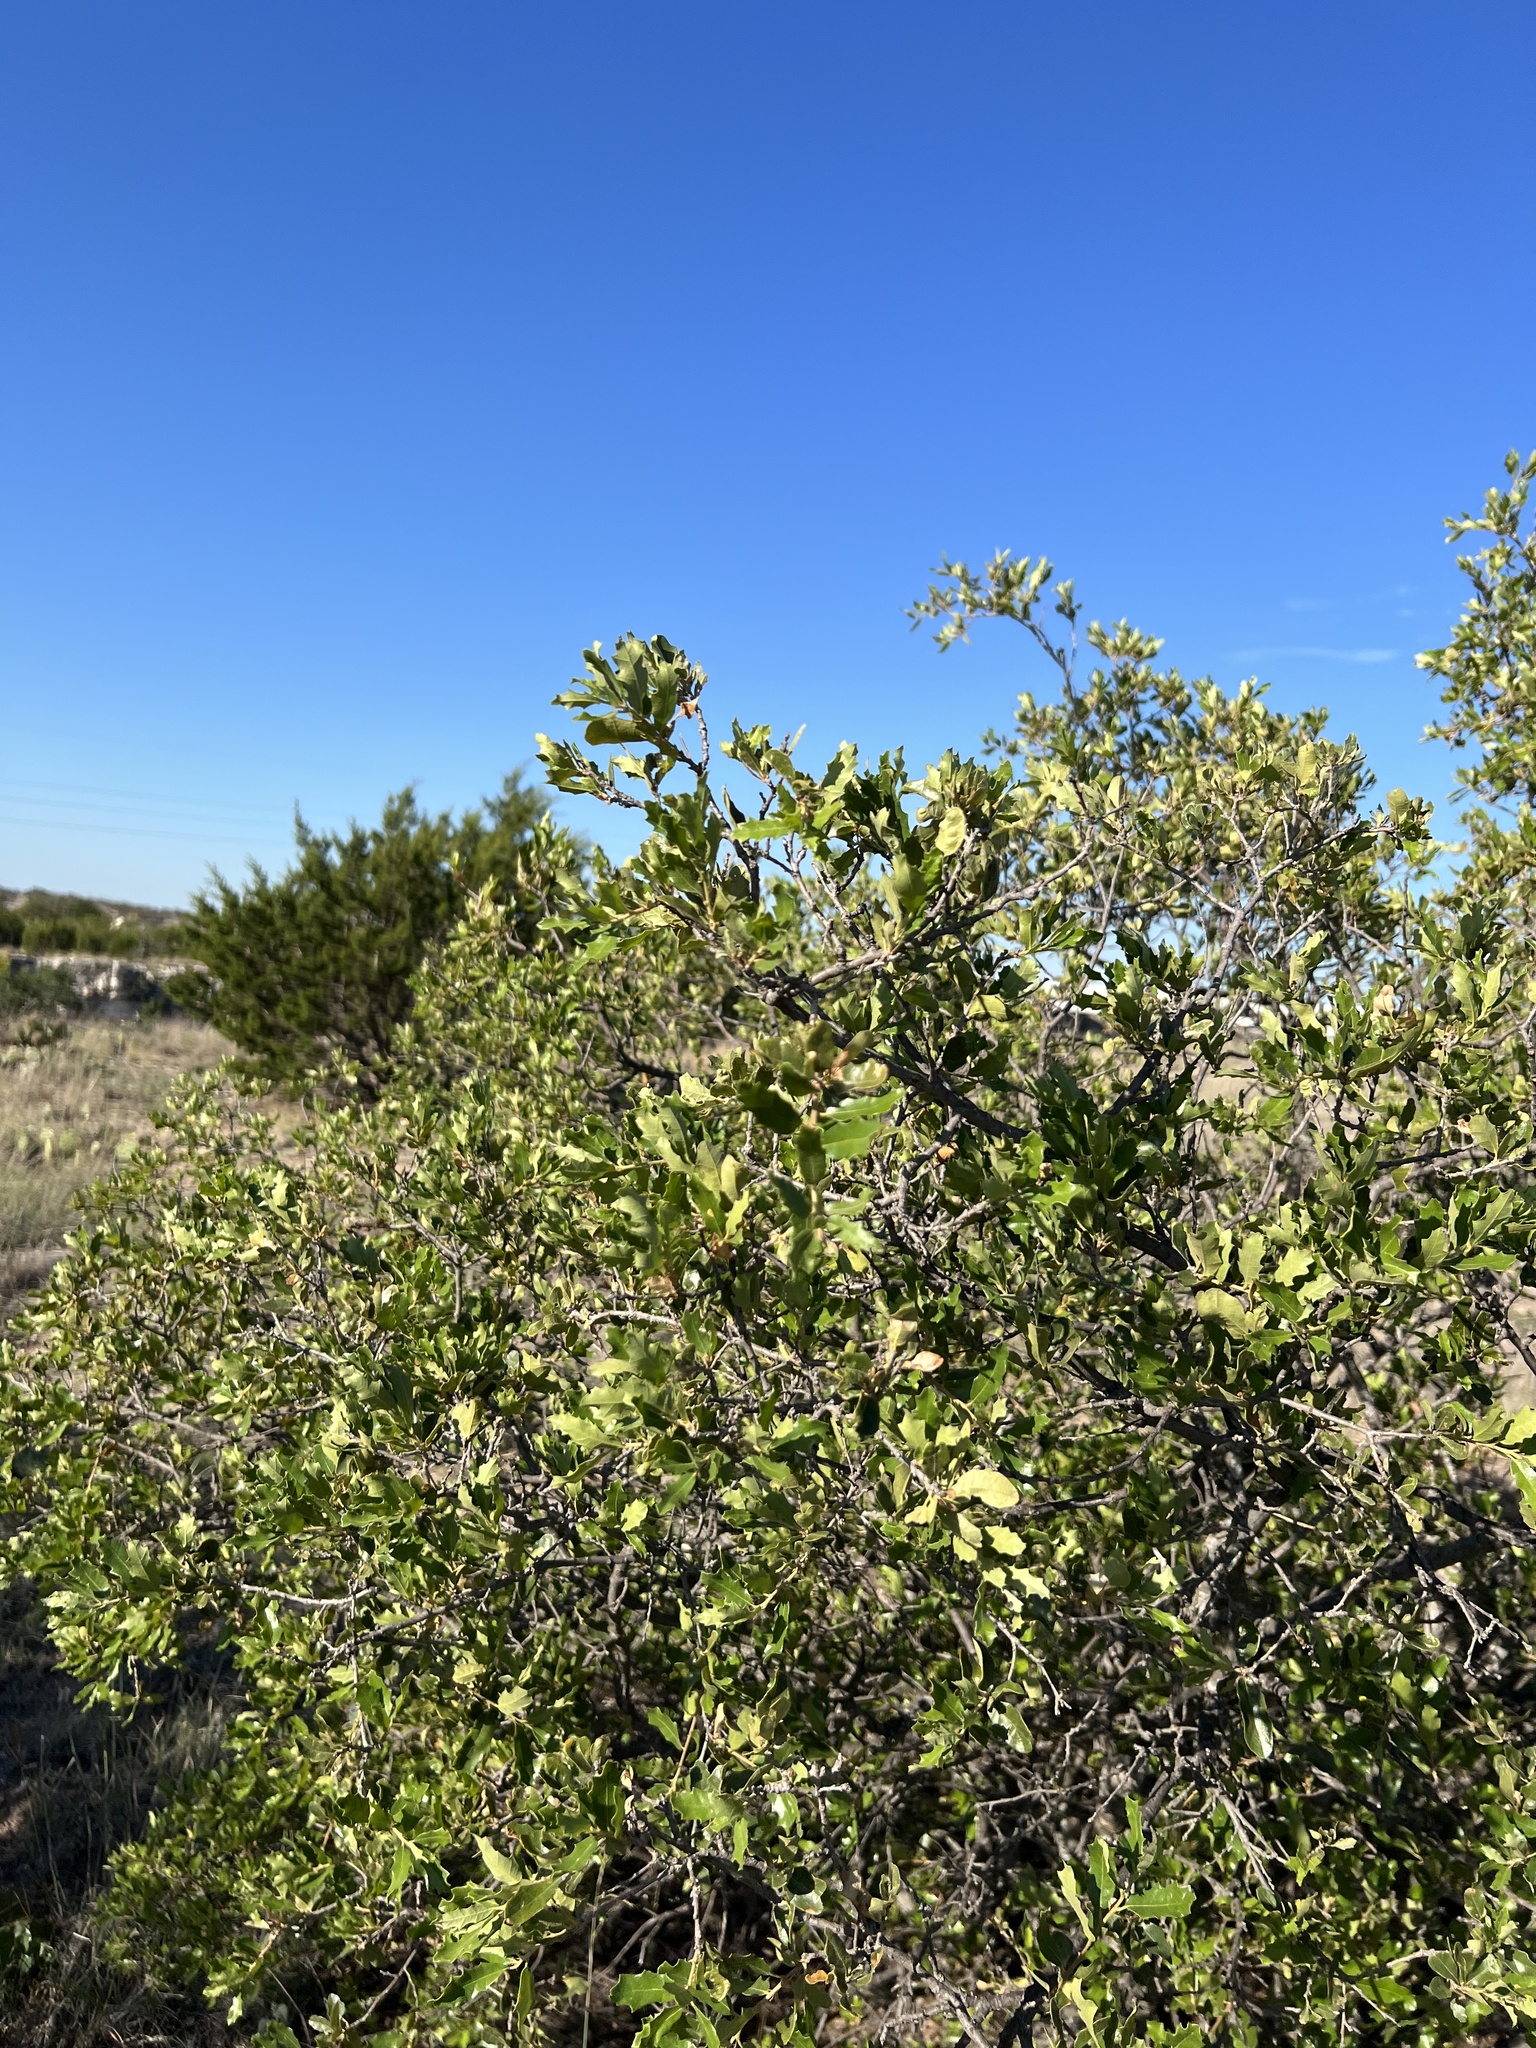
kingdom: Plantae
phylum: Tracheophyta
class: Magnoliopsida
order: Fagales
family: Fagaceae
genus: Quercus
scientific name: Quercus vaseyana
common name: Sandpaper oak
